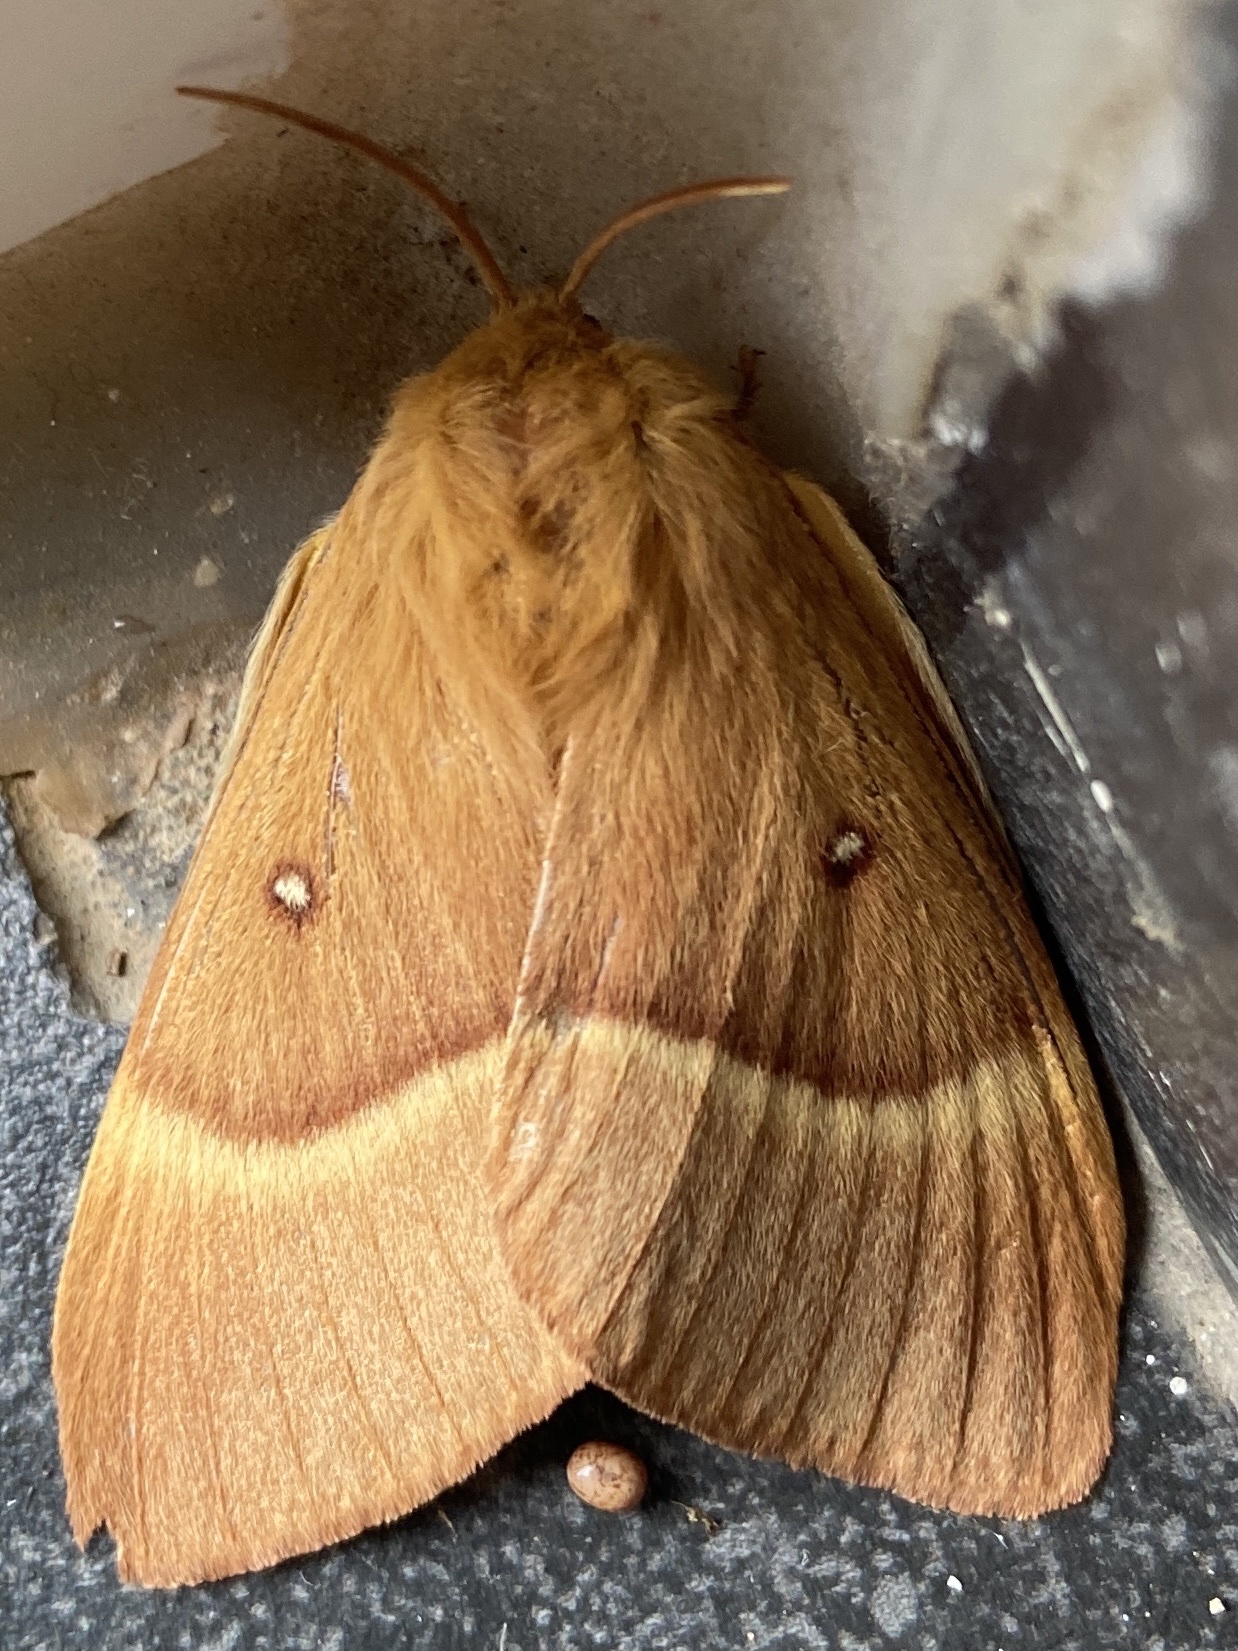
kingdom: Animalia
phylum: Arthropoda
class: Insecta
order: Lepidoptera
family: Lasiocampidae
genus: Lasiocampa
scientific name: Lasiocampa quercus
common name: Oak eggar
